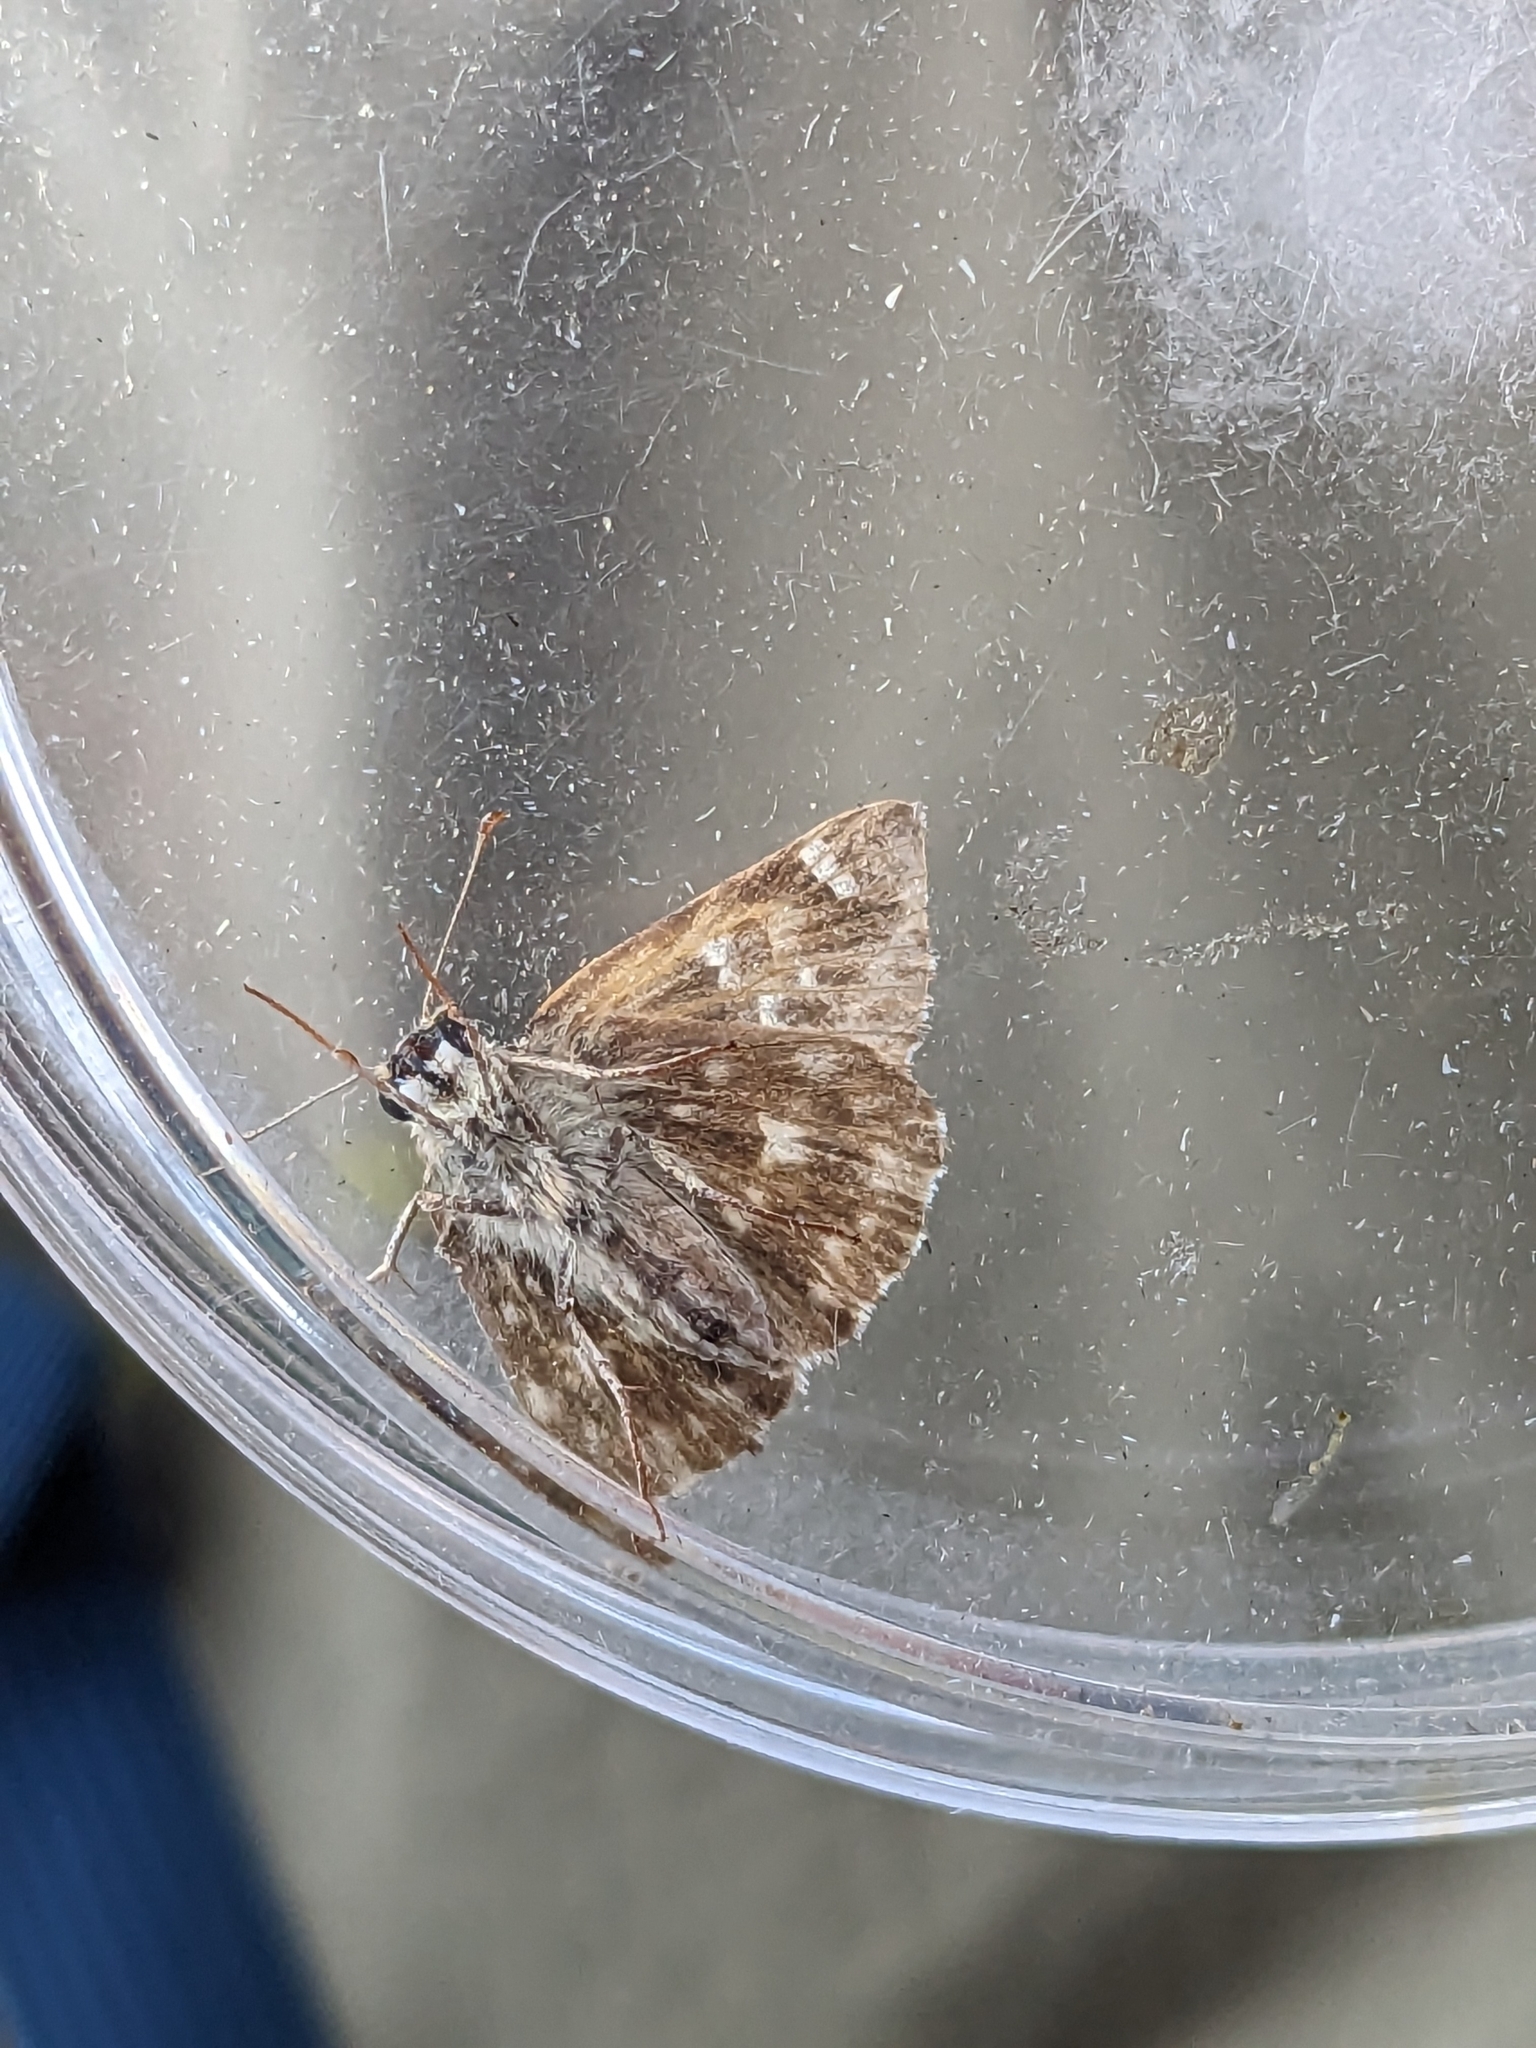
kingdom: Animalia
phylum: Arthropoda
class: Insecta
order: Lepidoptera
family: Hesperiidae
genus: Carcharodus
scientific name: Carcharodus alceae
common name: Mallow skipper
